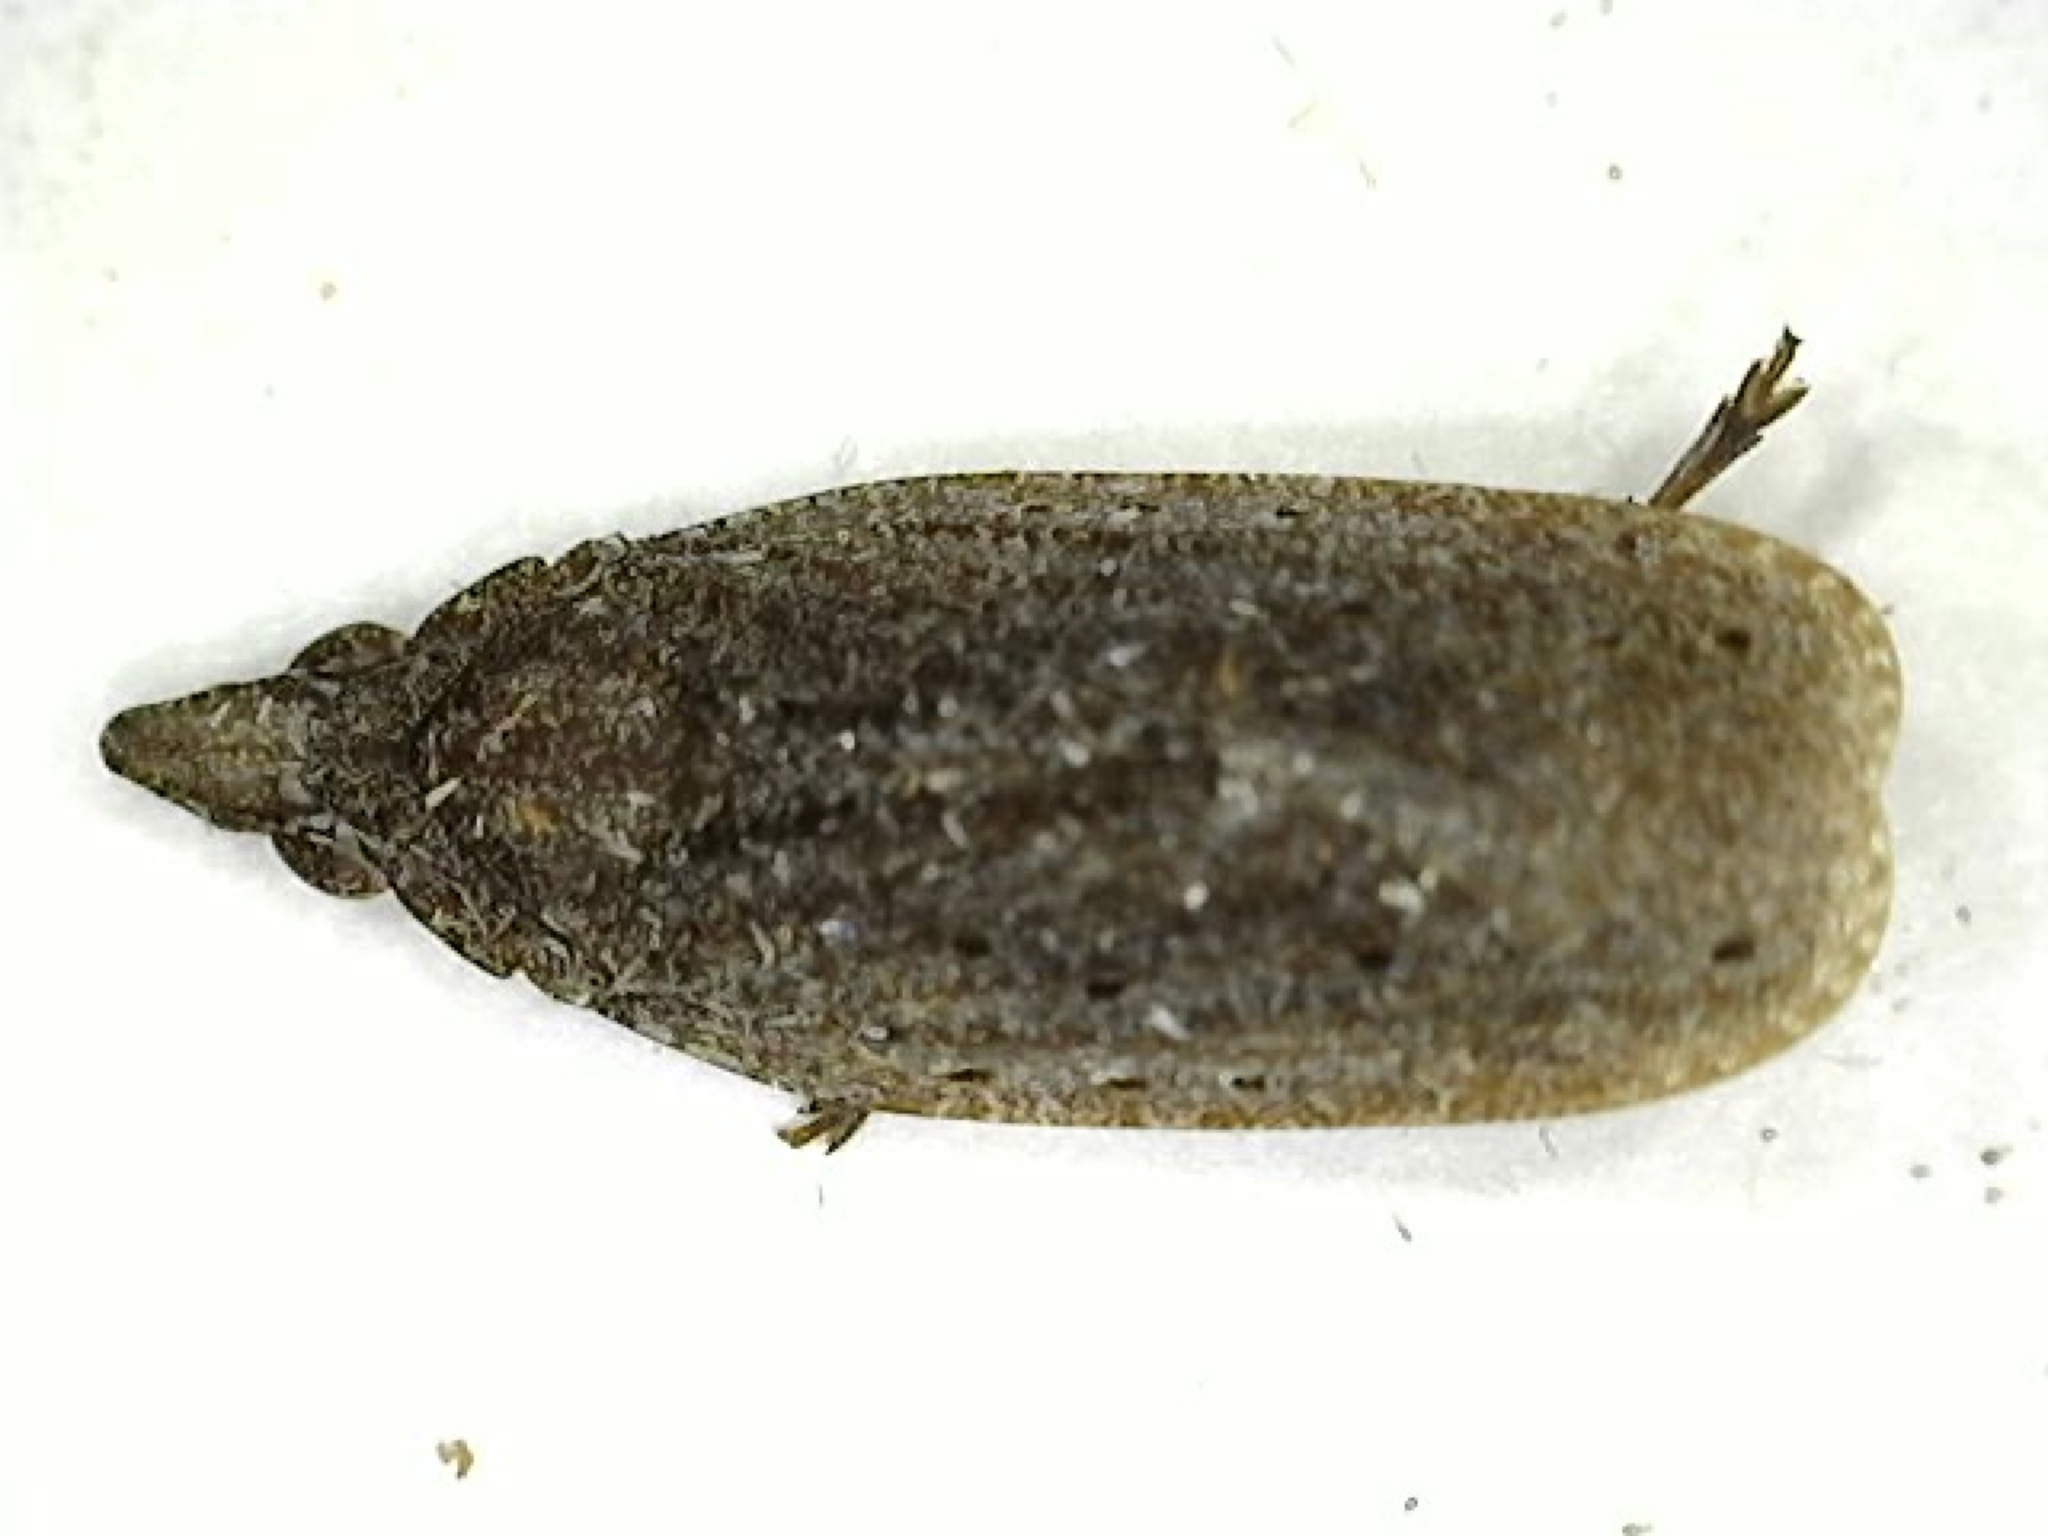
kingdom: Animalia
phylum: Arthropoda
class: Insecta
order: Hemiptera
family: Achilidae
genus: Cixidia
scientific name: Cixidia fusca
